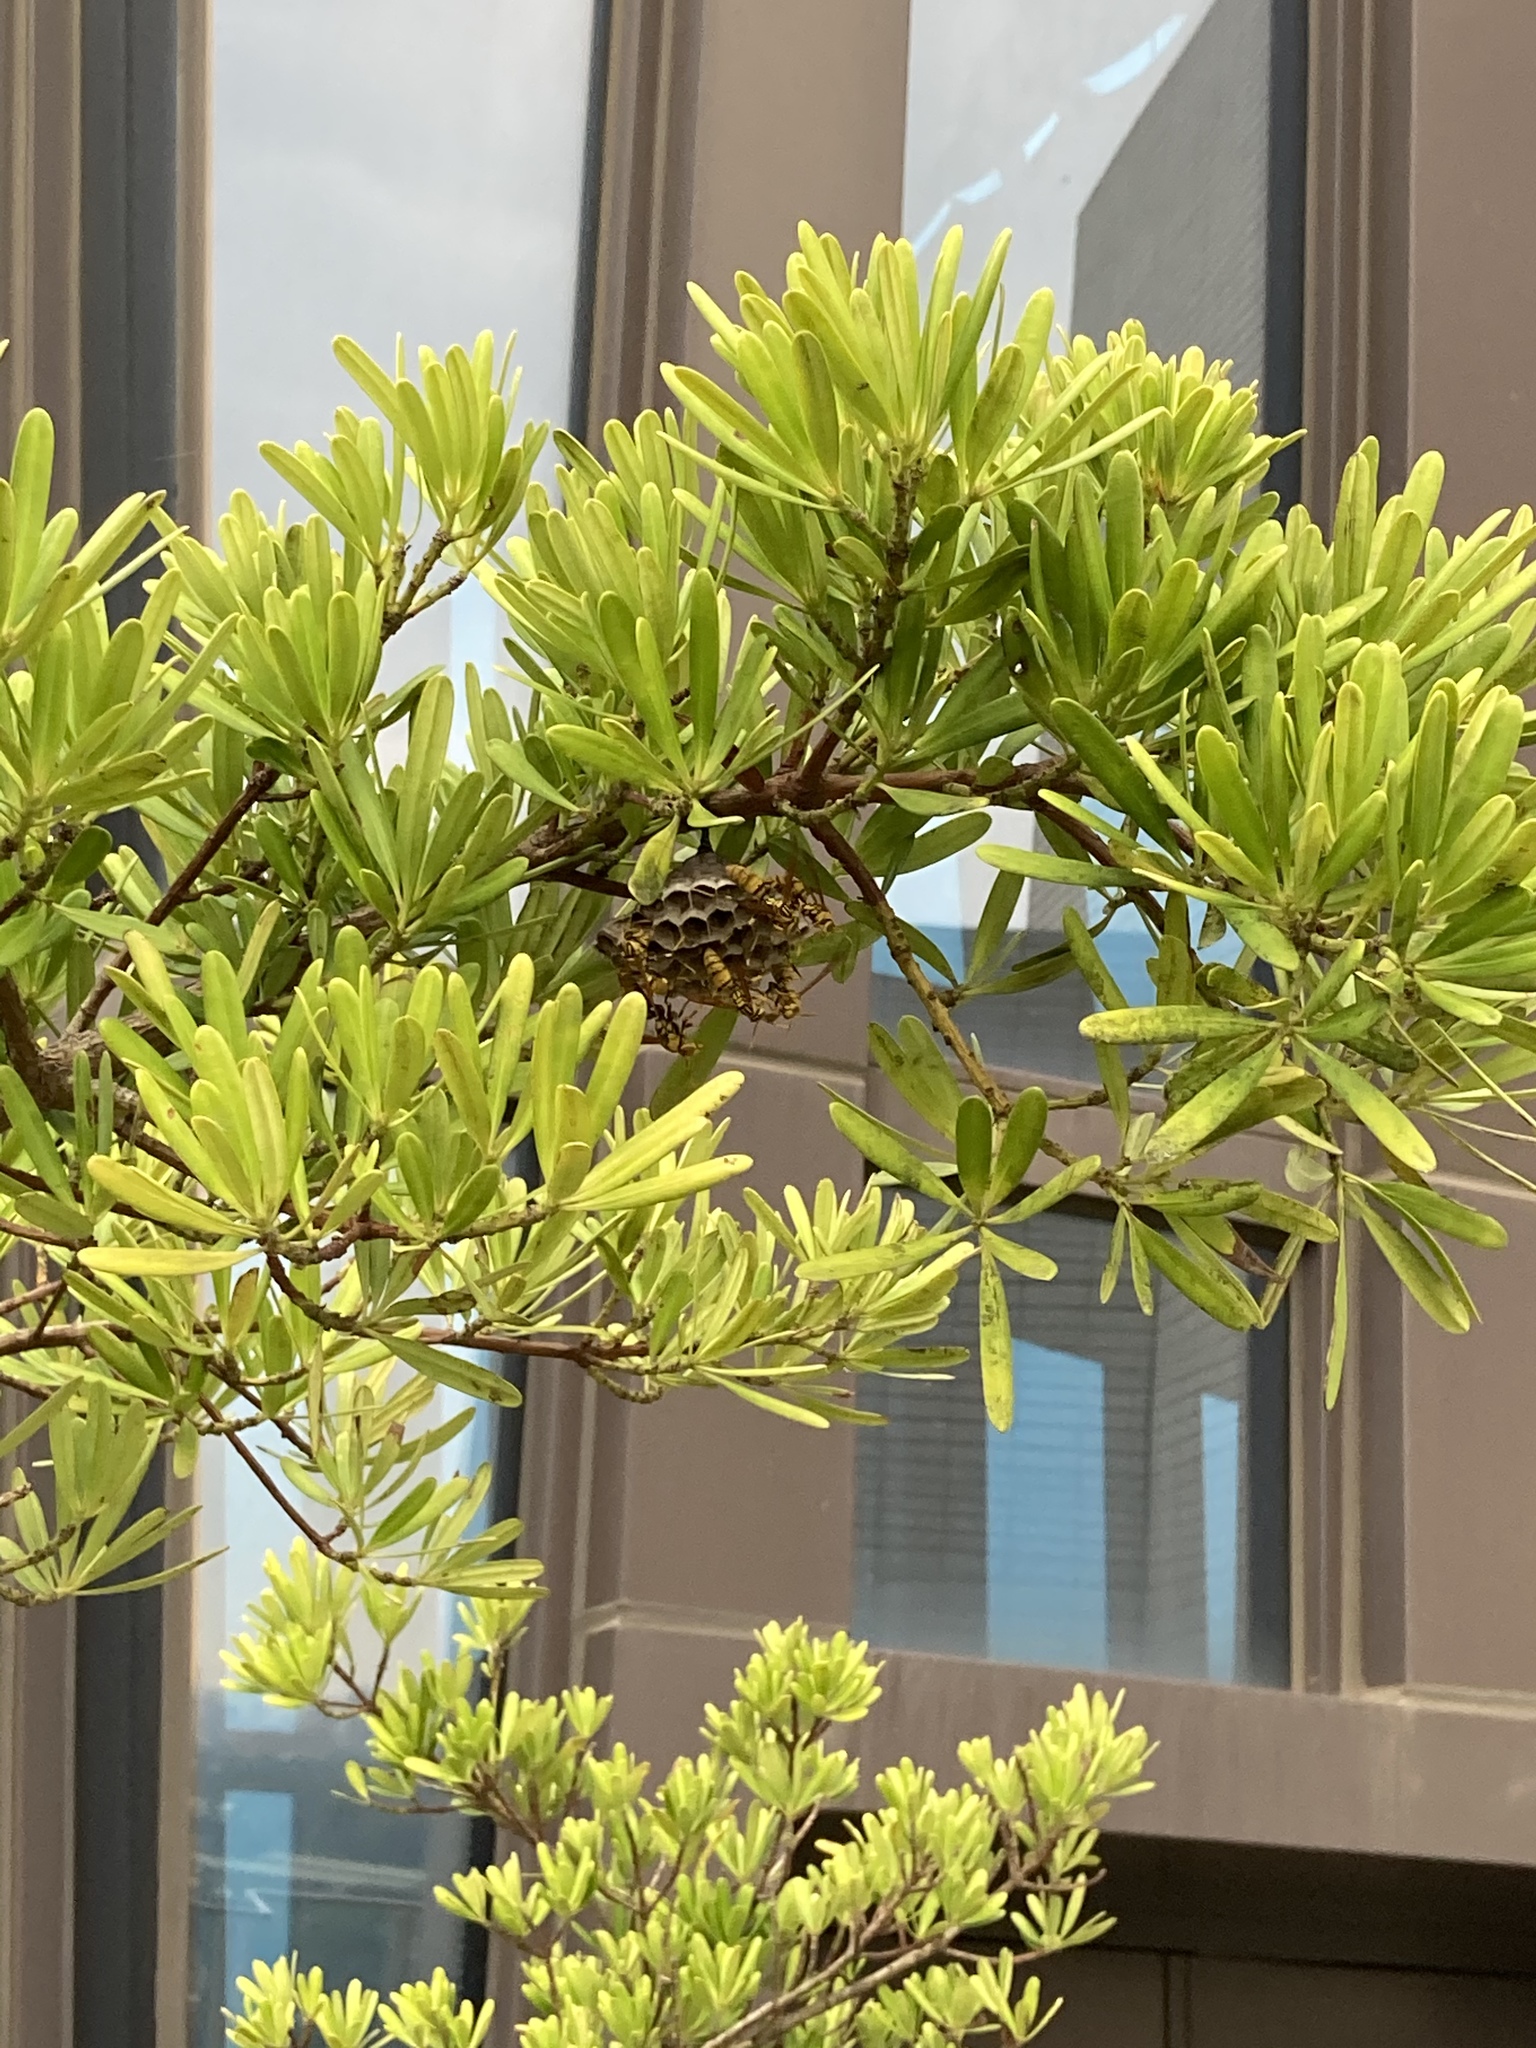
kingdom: Animalia
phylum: Arthropoda
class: Insecta
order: Hymenoptera
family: Eumenidae
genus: Polistes
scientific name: Polistes rothneyi
